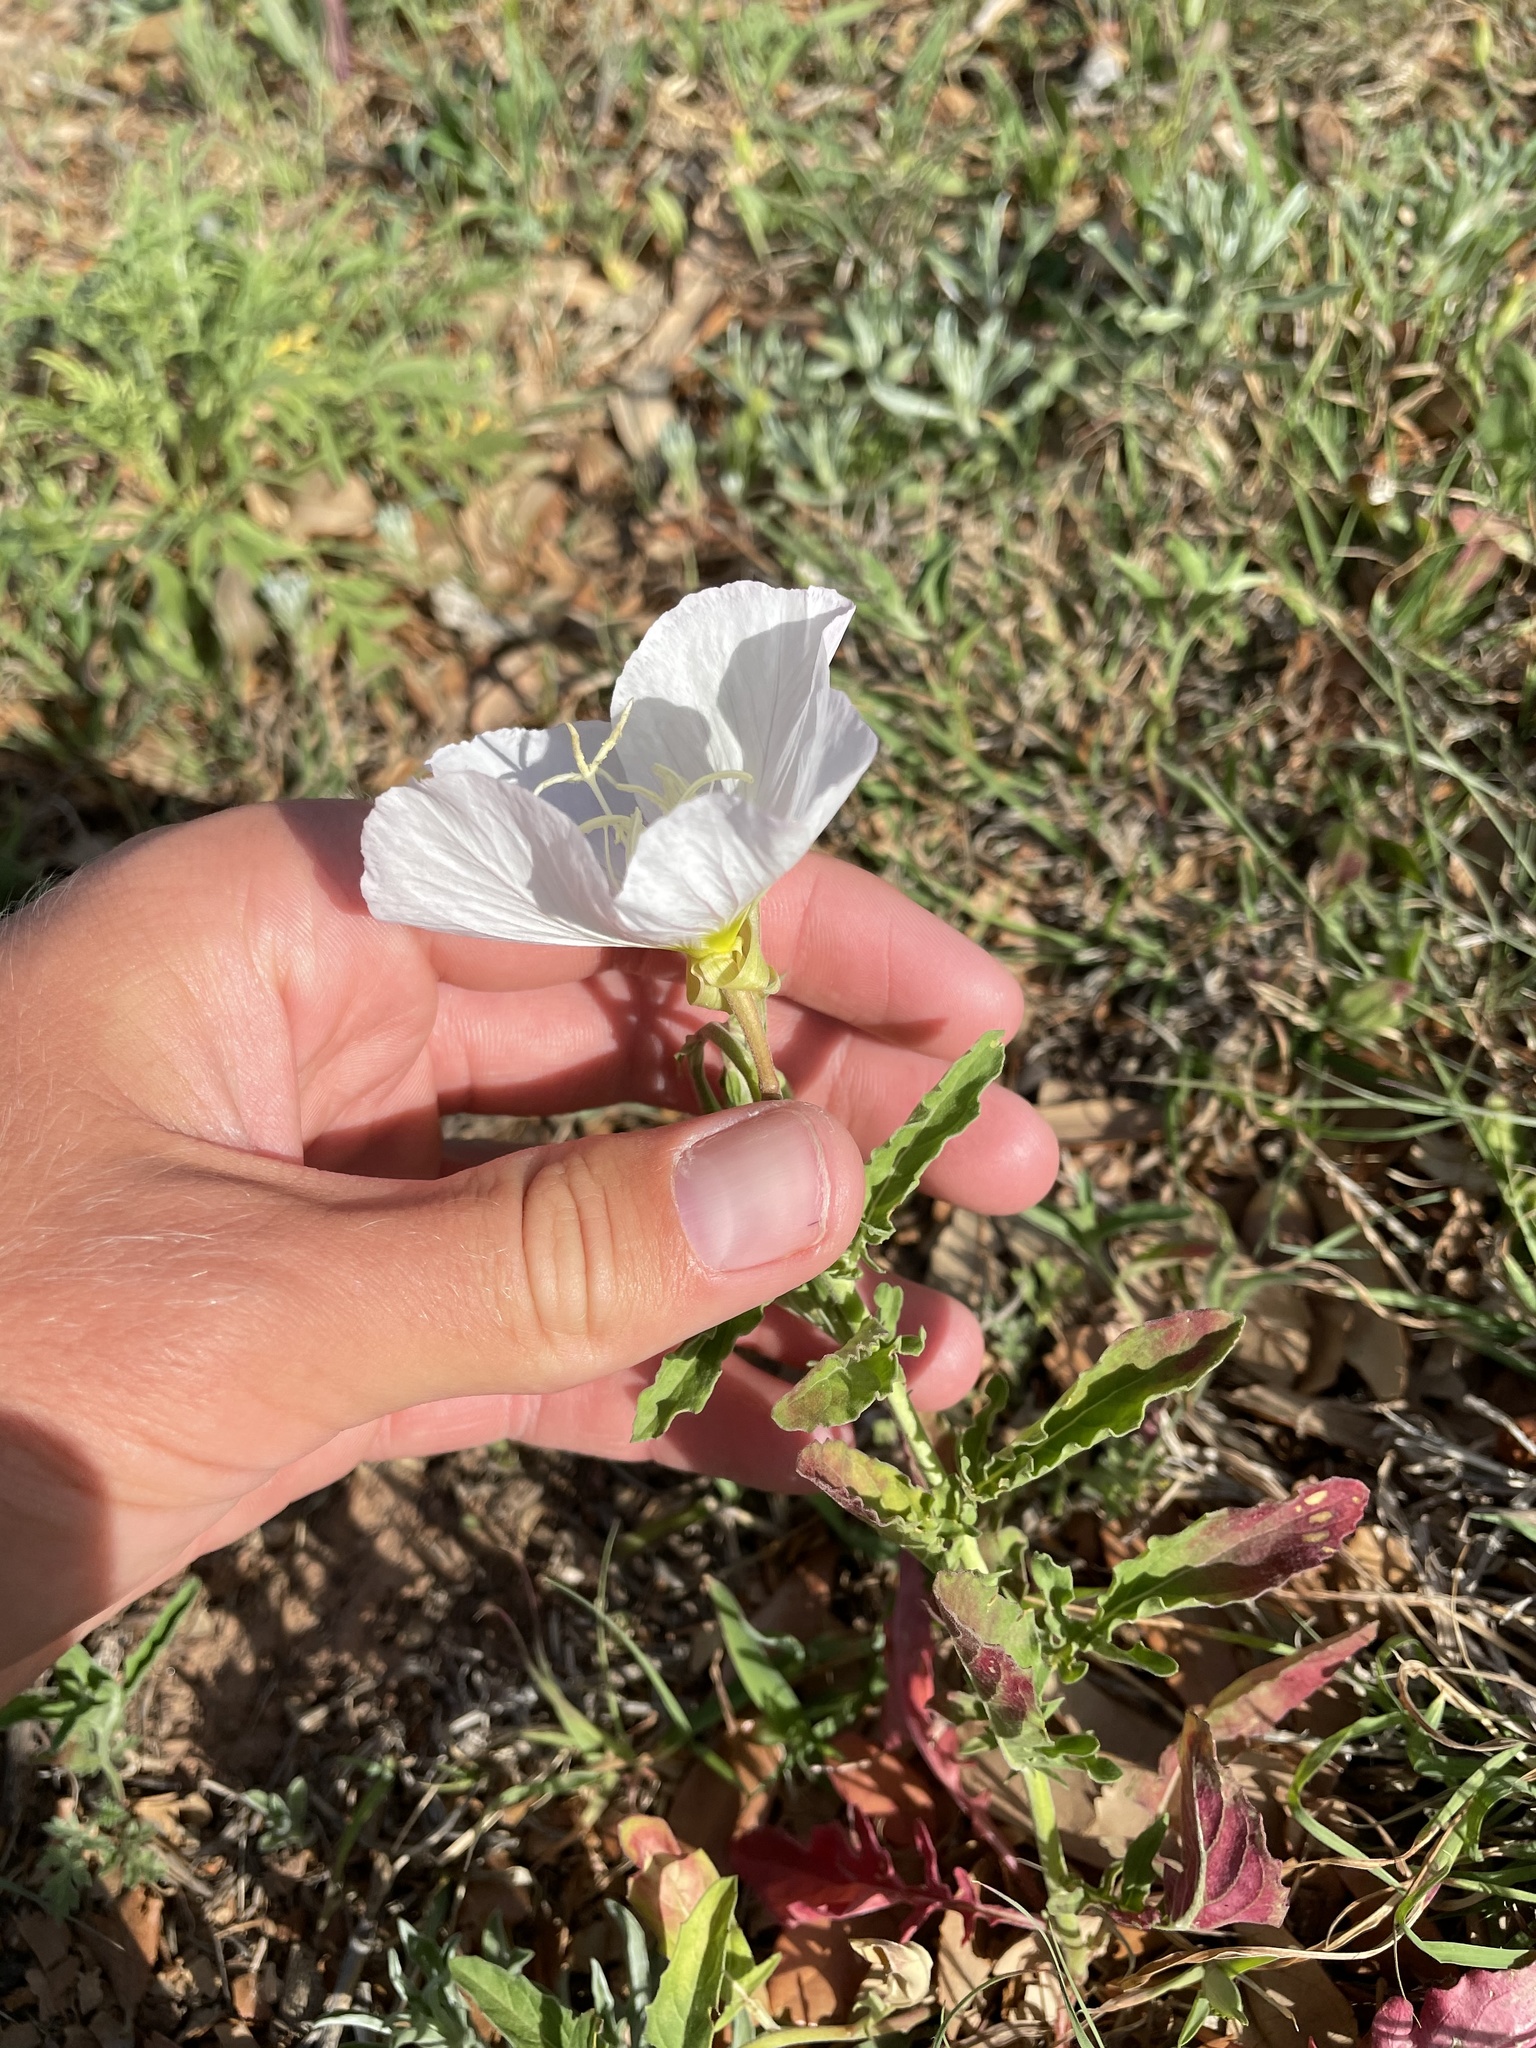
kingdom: Plantae
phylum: Tracheophyta
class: Magnoliopsida
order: Myrtales
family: Onagraceae
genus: Oenothera
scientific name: Oenothera speciosa
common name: White evening-primrose
